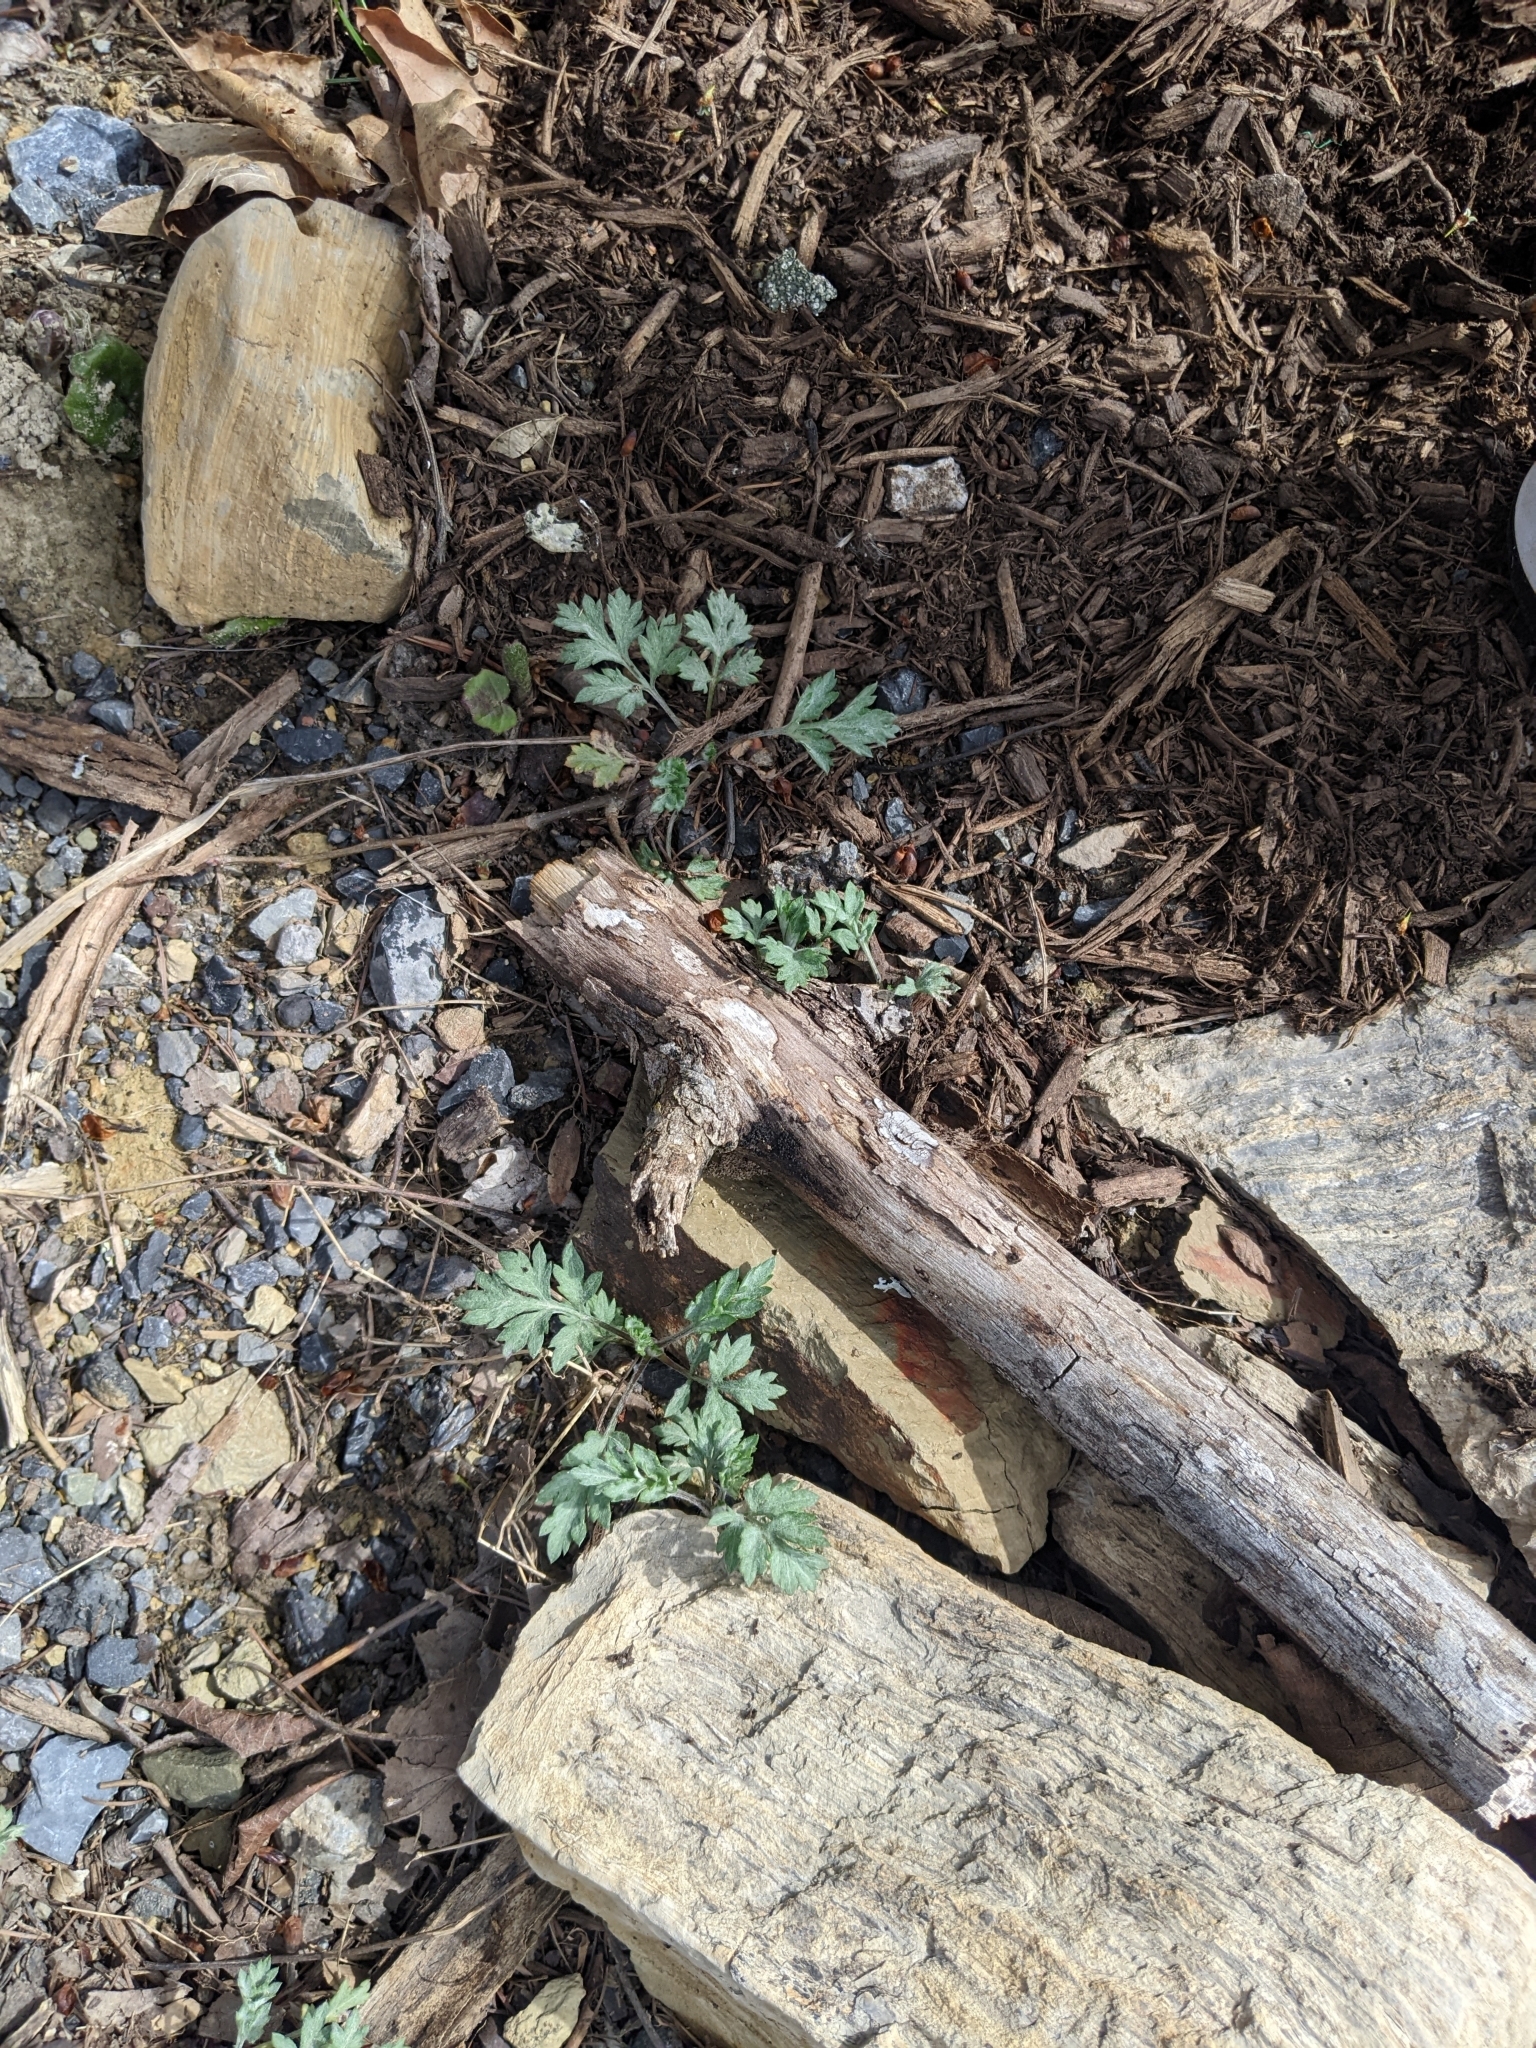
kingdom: Plantae
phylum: Tracheophyta
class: Magnoliopsida
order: Asterales
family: Asteraceae
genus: Artemisia
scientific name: Artemisia vulgaris
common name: Mugwort
